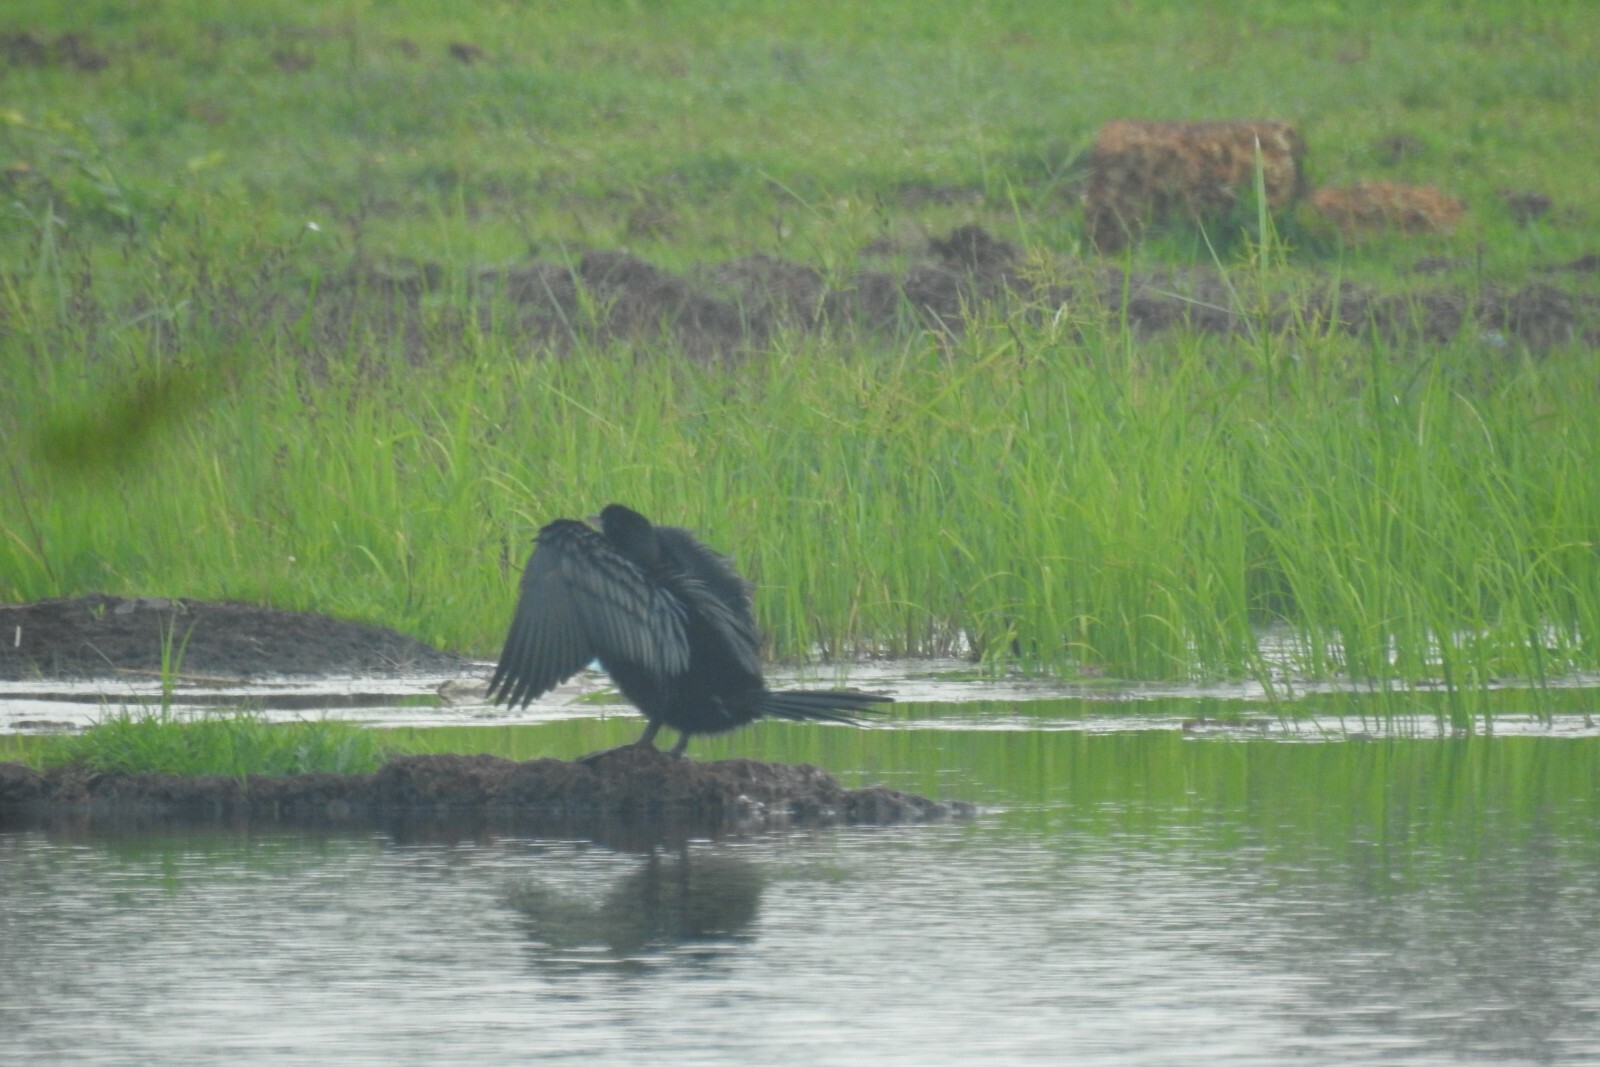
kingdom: Animalia
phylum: Chordata
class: Aves
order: Suliformes
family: Phalacrocoracidae
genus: Microcarbo
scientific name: Microcarbo niger
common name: Little cormorant
